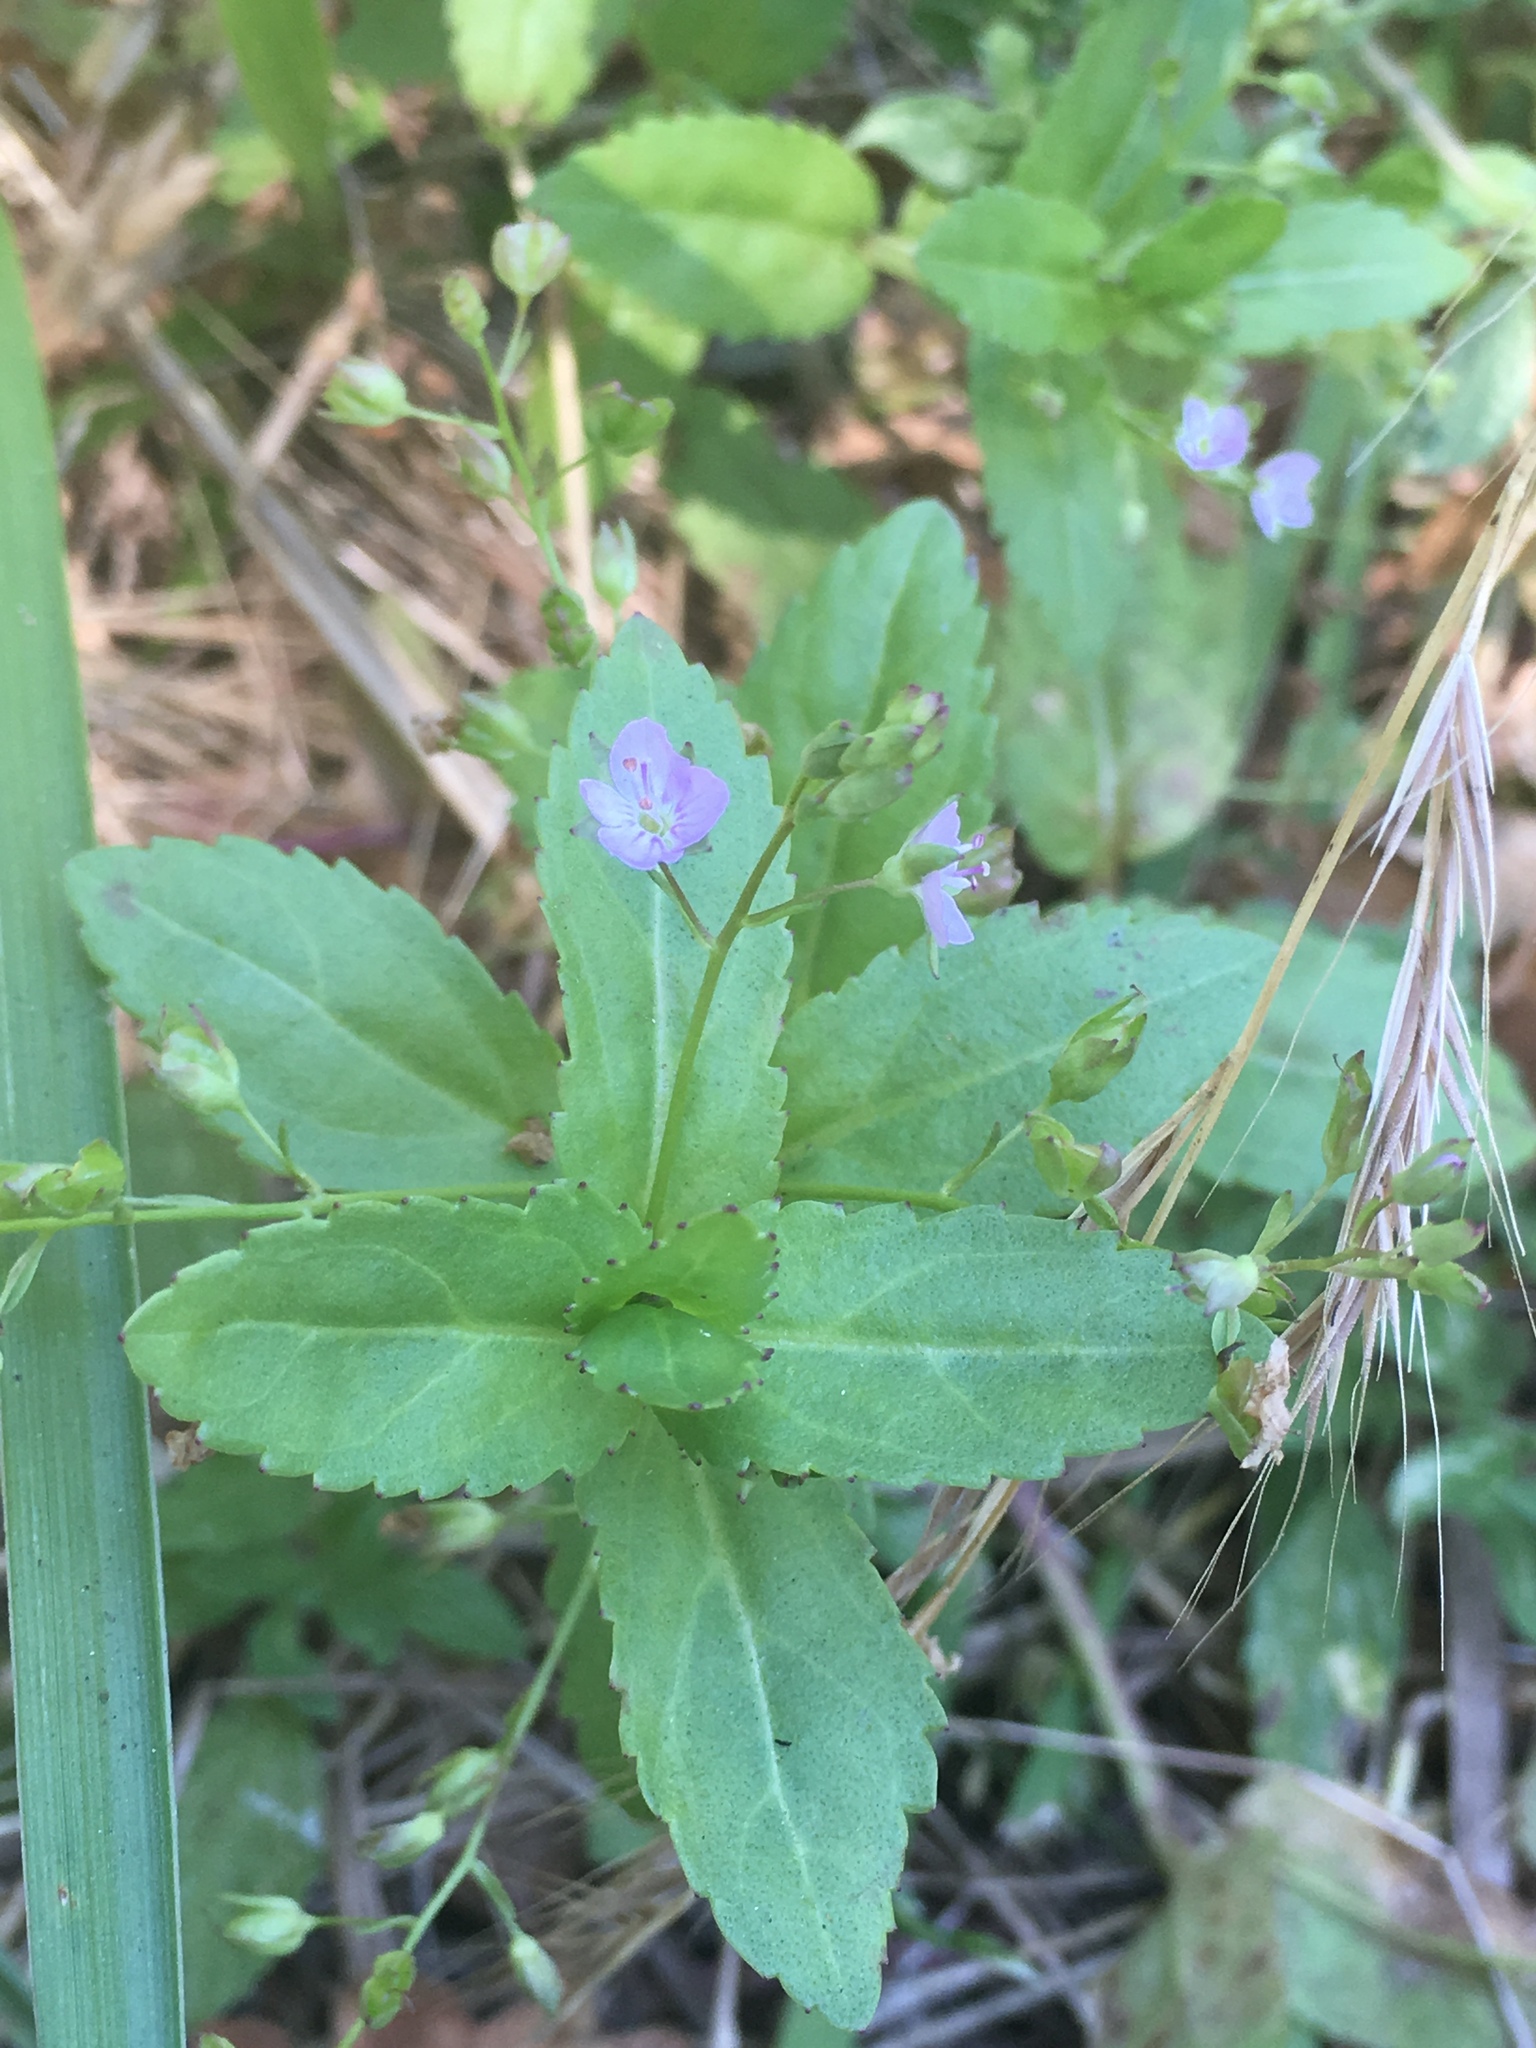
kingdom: Plantae
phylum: Tracheophyta
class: Magnoliopsida
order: Lamiales
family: Plantaginaceae
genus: Veronica
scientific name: Veronica americana
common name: American brooklime
